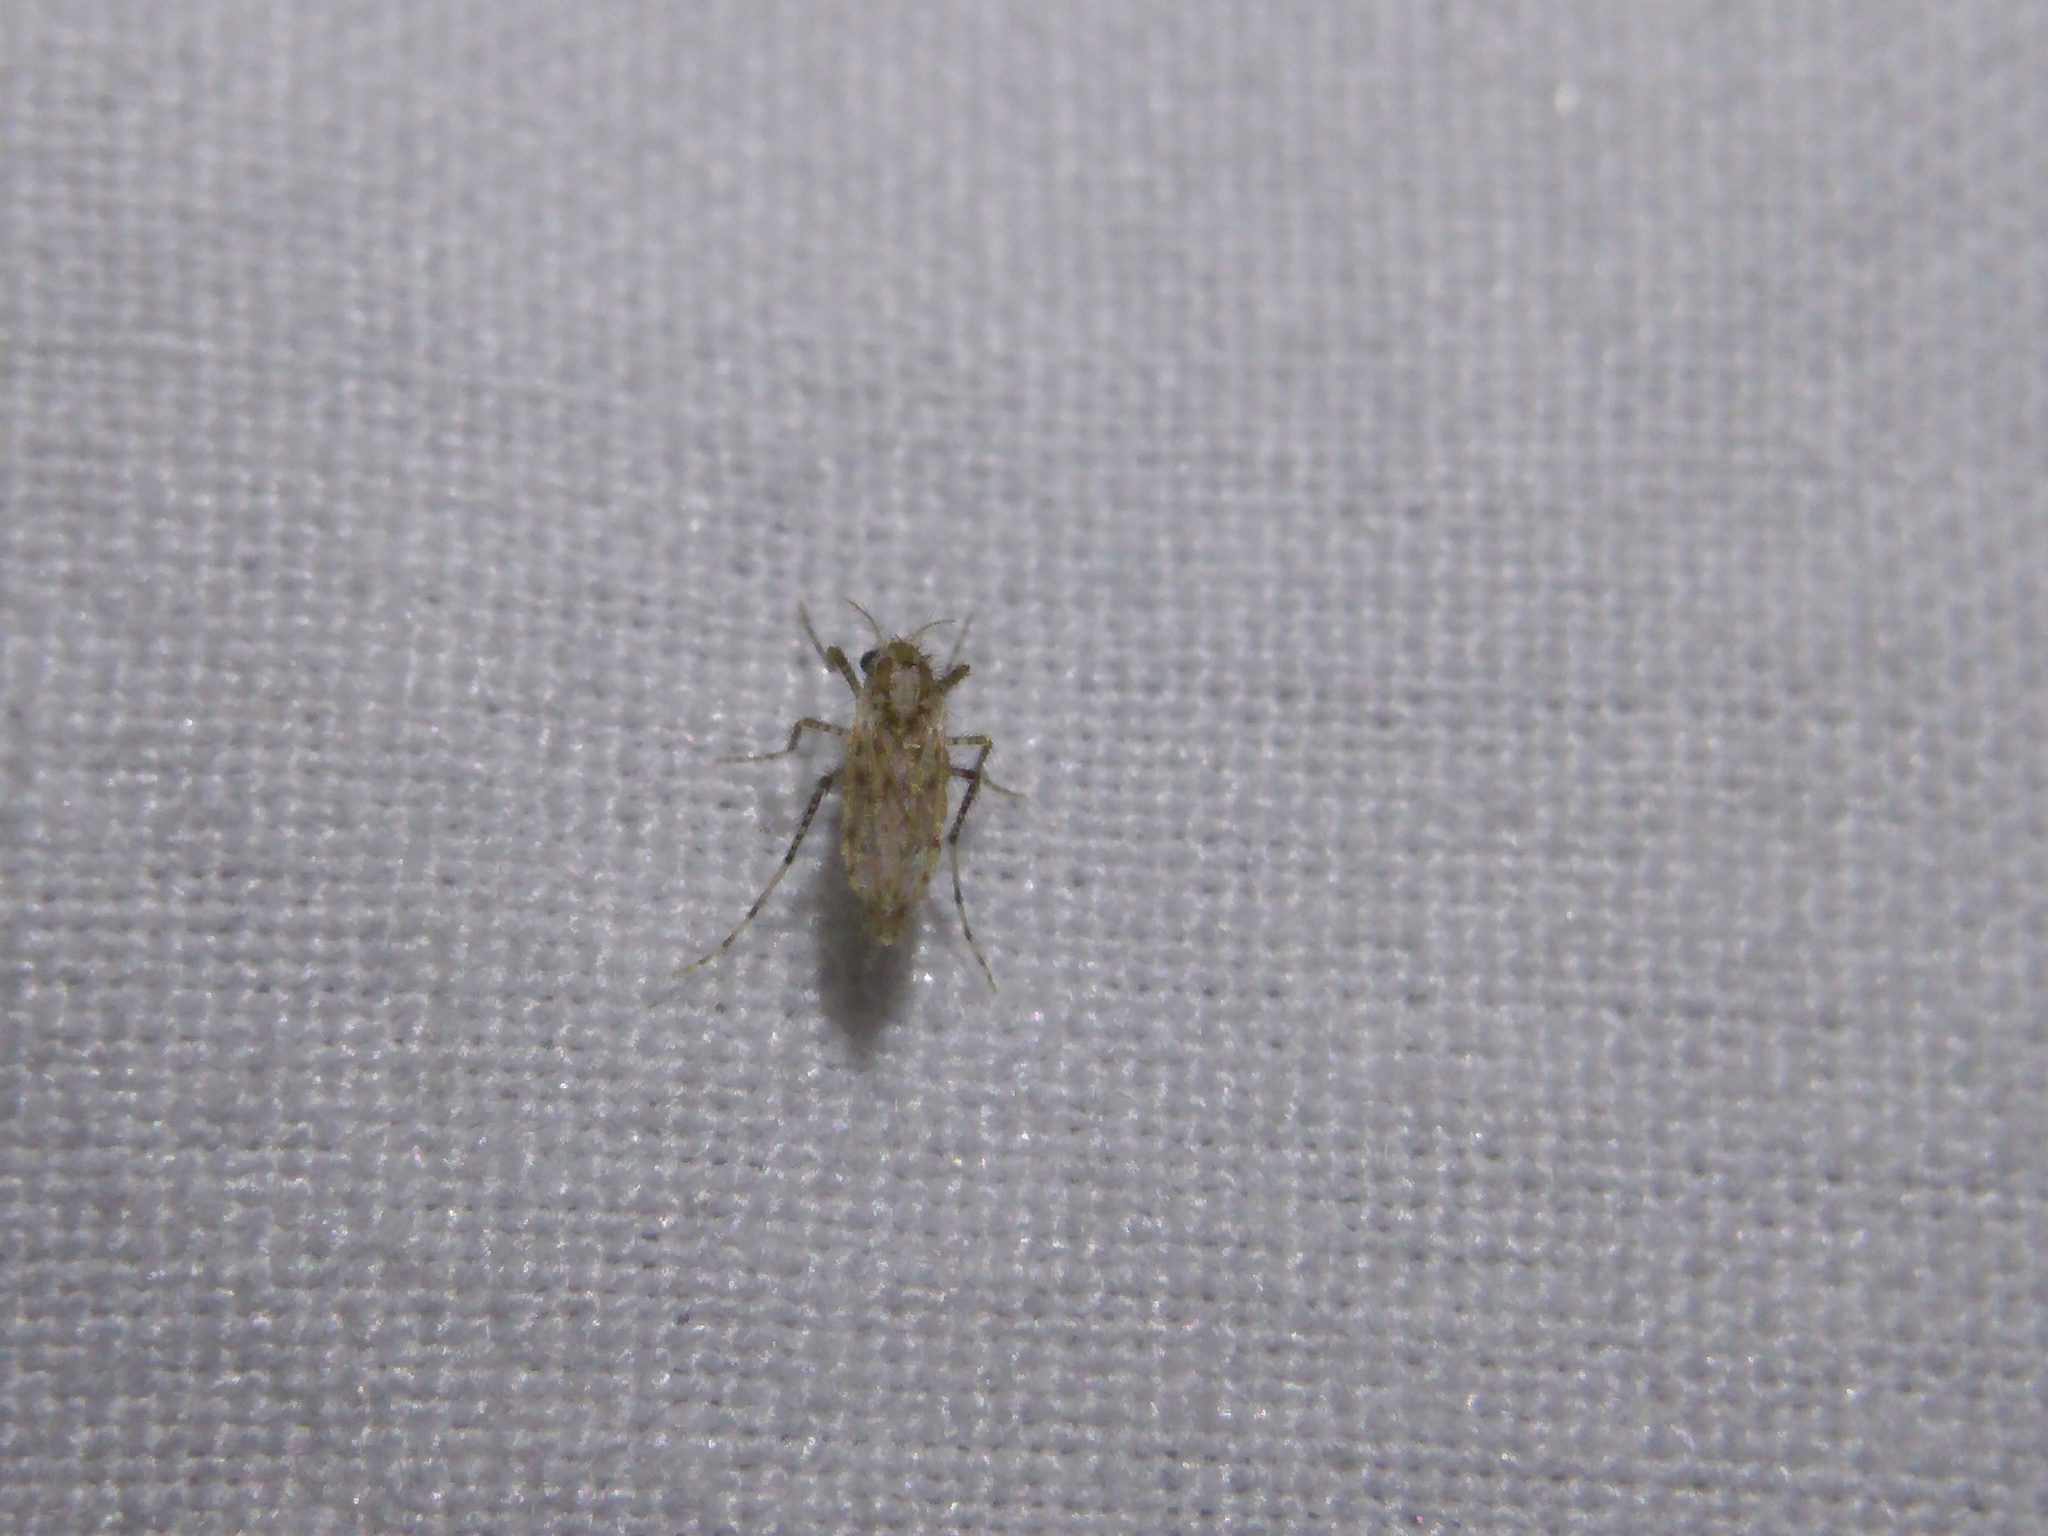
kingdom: Animalia
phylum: Arthropoda
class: Insecta
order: Diptera
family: Chaoboridae
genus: Chaoborus
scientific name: Chaoborus punctipennis
